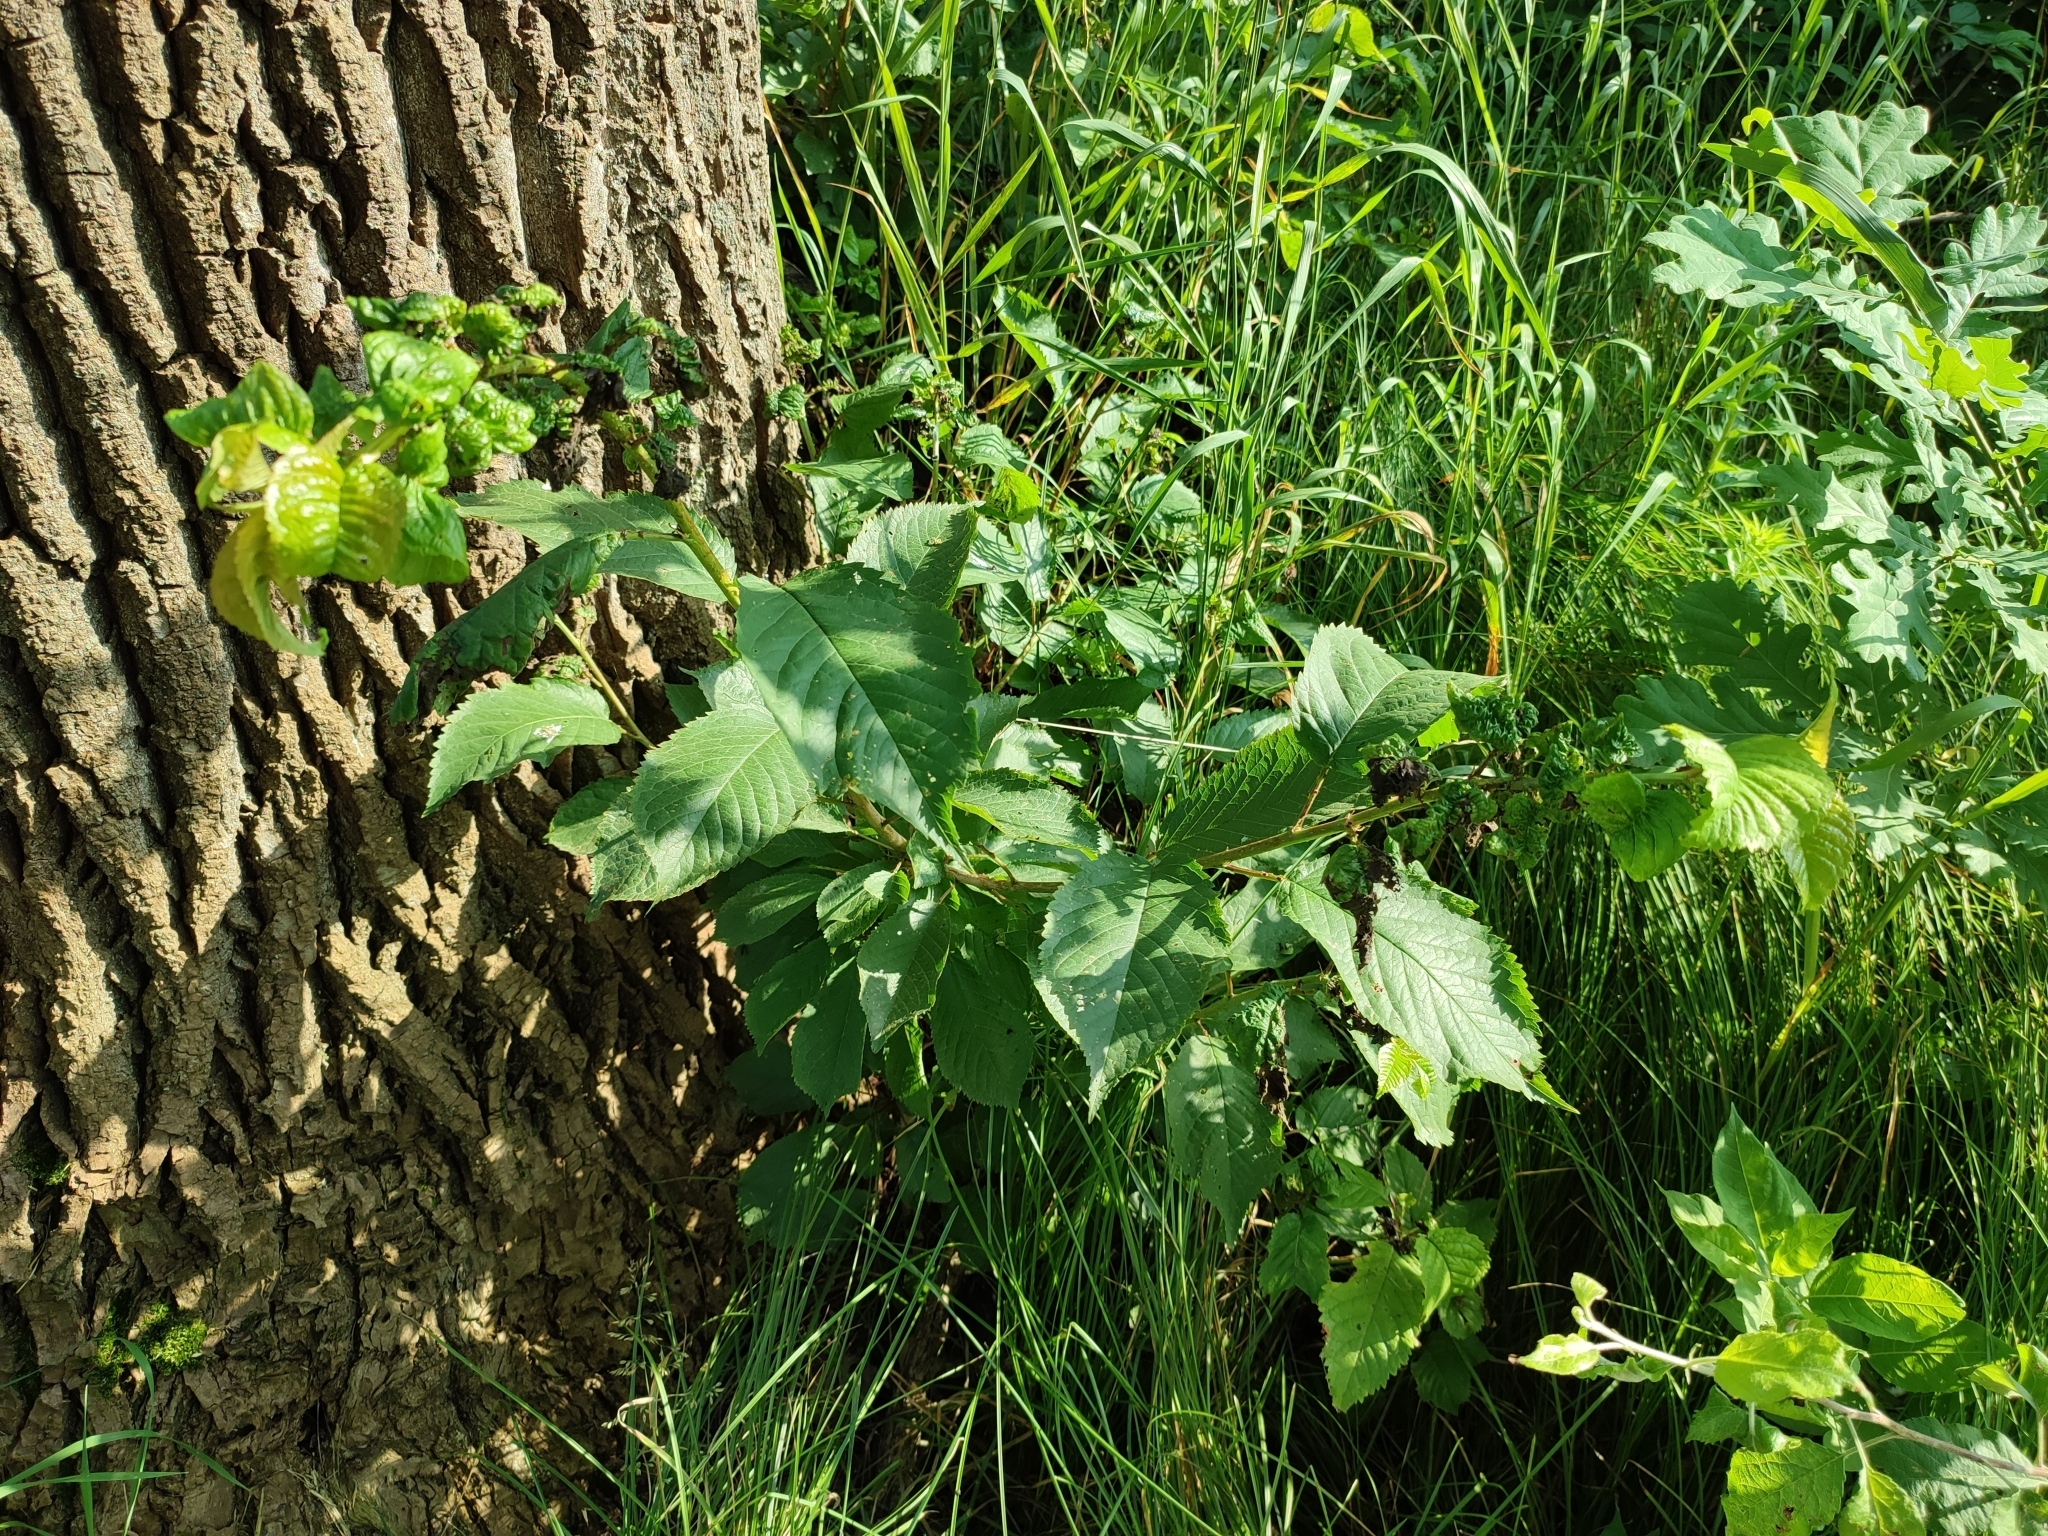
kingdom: Plantae
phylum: Tracheophyta
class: Magnoliopsida
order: Rosales
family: Rosaceae
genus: Prunus
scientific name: Prunus avium
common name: Sweet cherry
